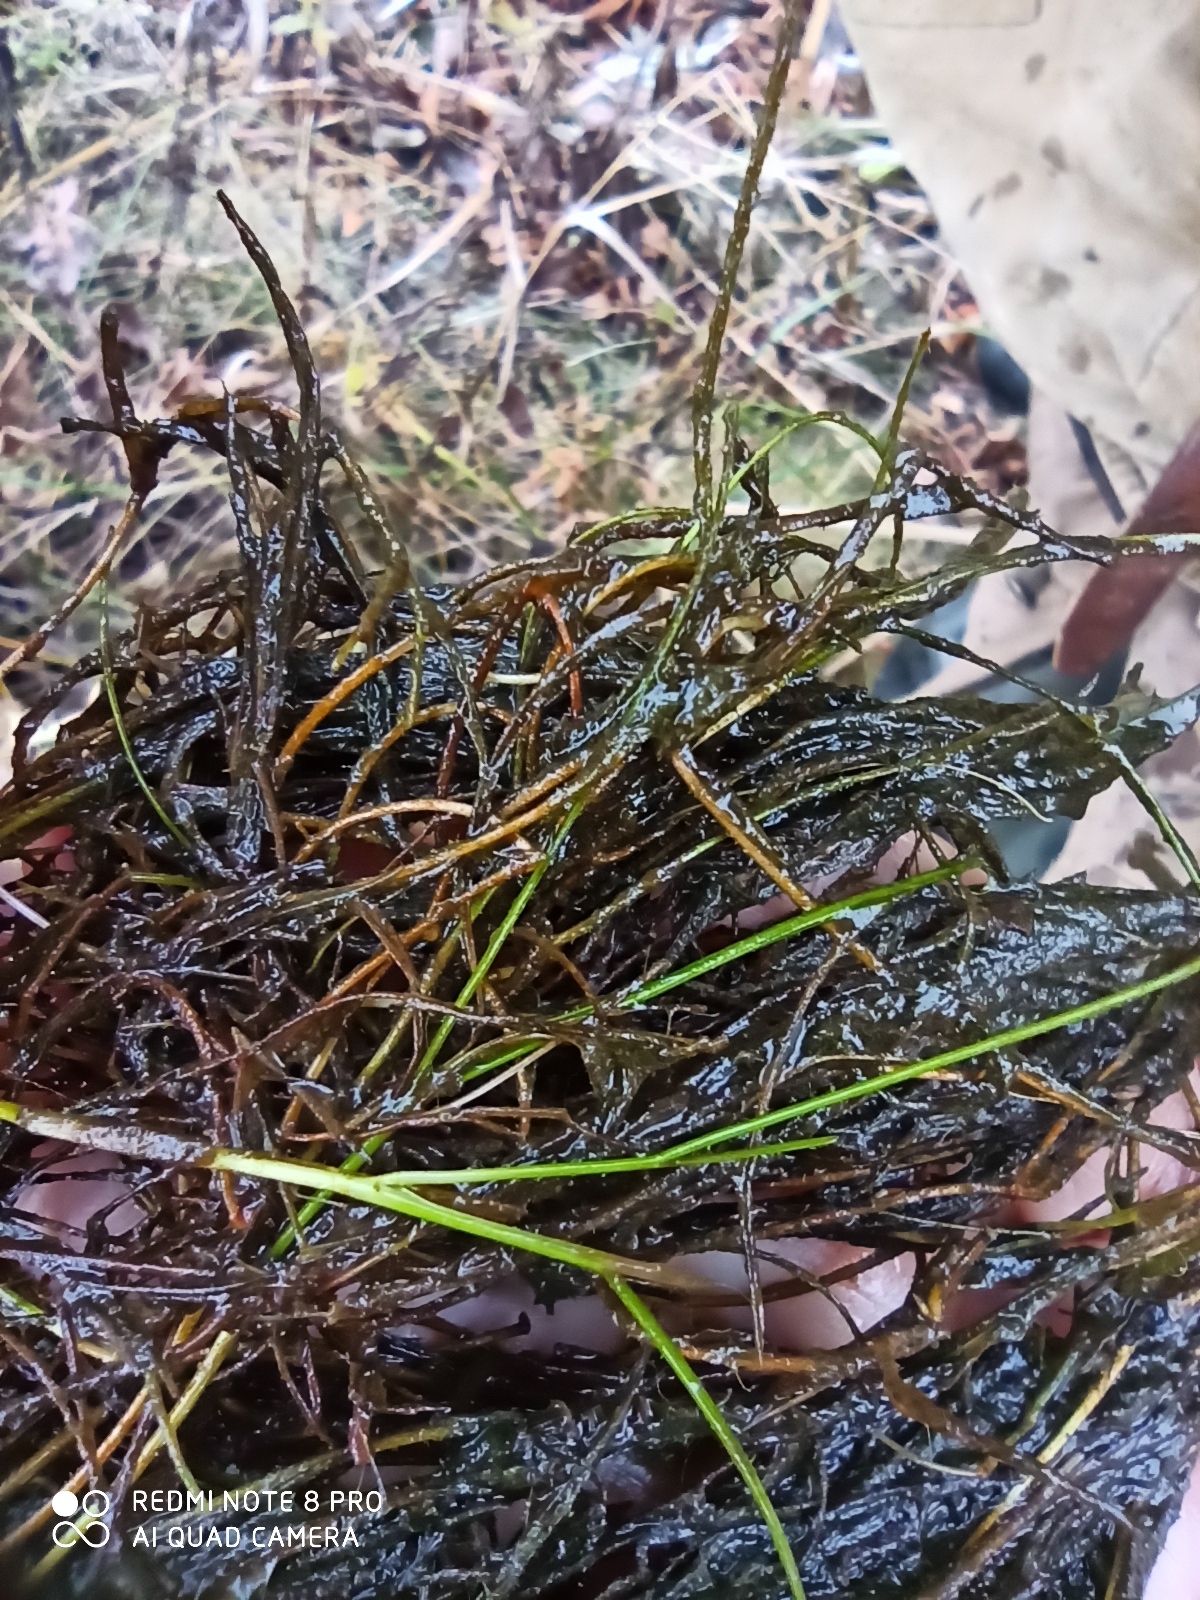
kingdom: Plantae
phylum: Tracheophyta
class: Liliopsida
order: Alismatales
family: Potamogetonaceae
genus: Stuckenia
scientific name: Stuckenia pectinata
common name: Sago pondweed
